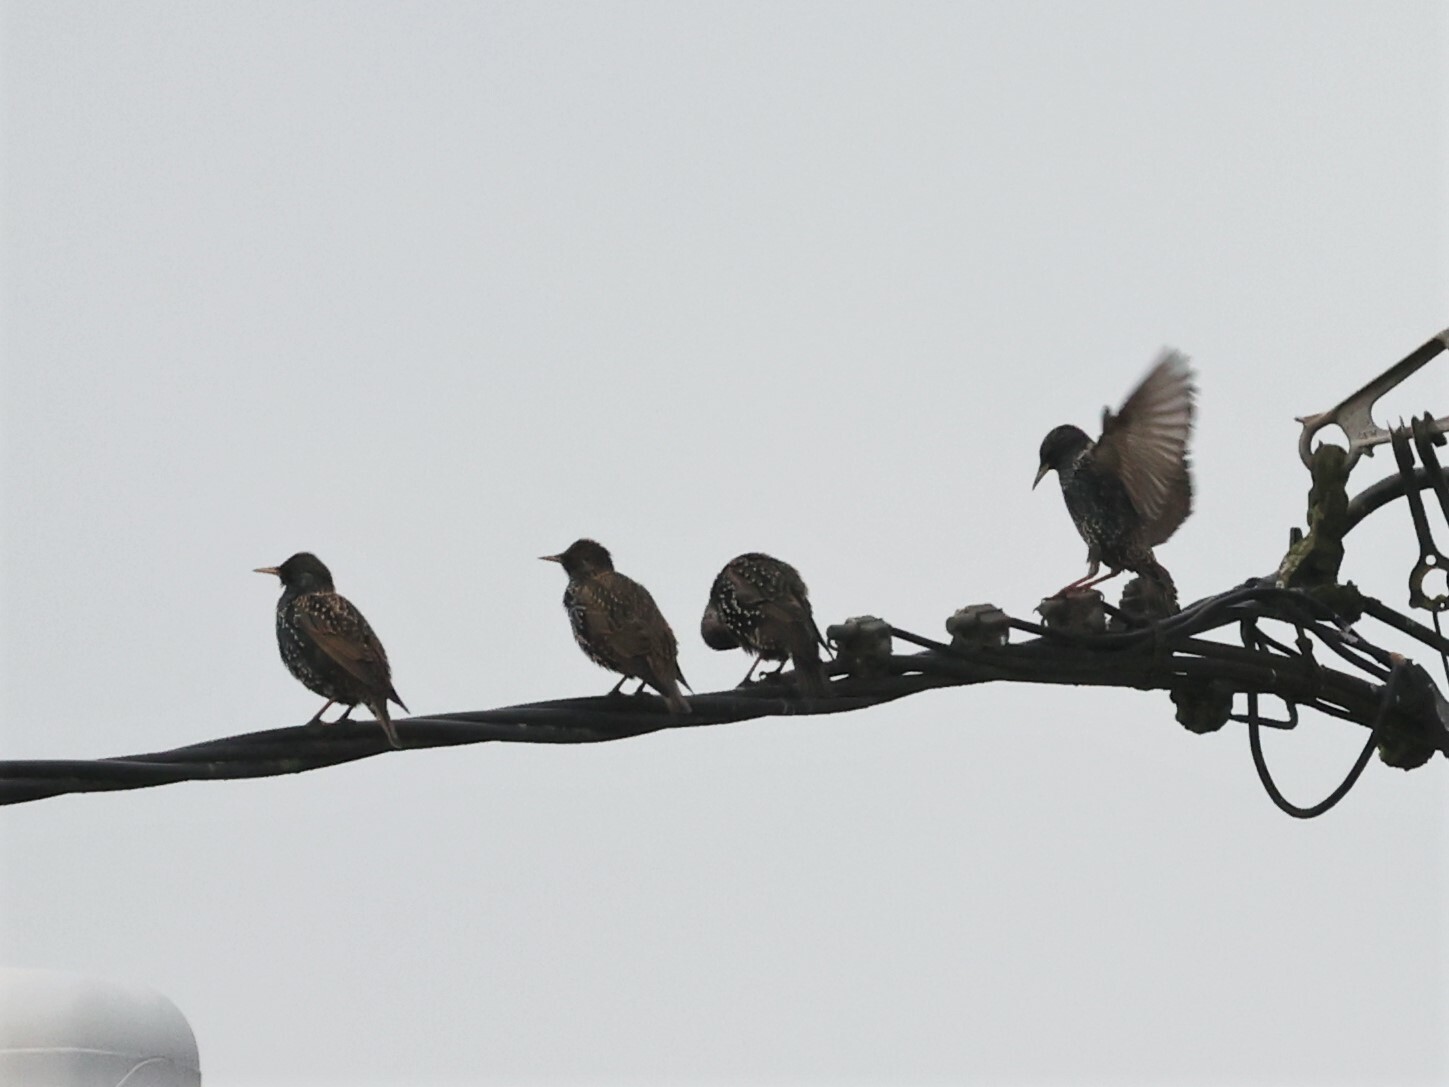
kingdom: Animalia
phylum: Chordata
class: Aves
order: Passeriformes
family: Sturnidae
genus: Sturnus
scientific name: Sturnus vulgaris
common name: Common starling
